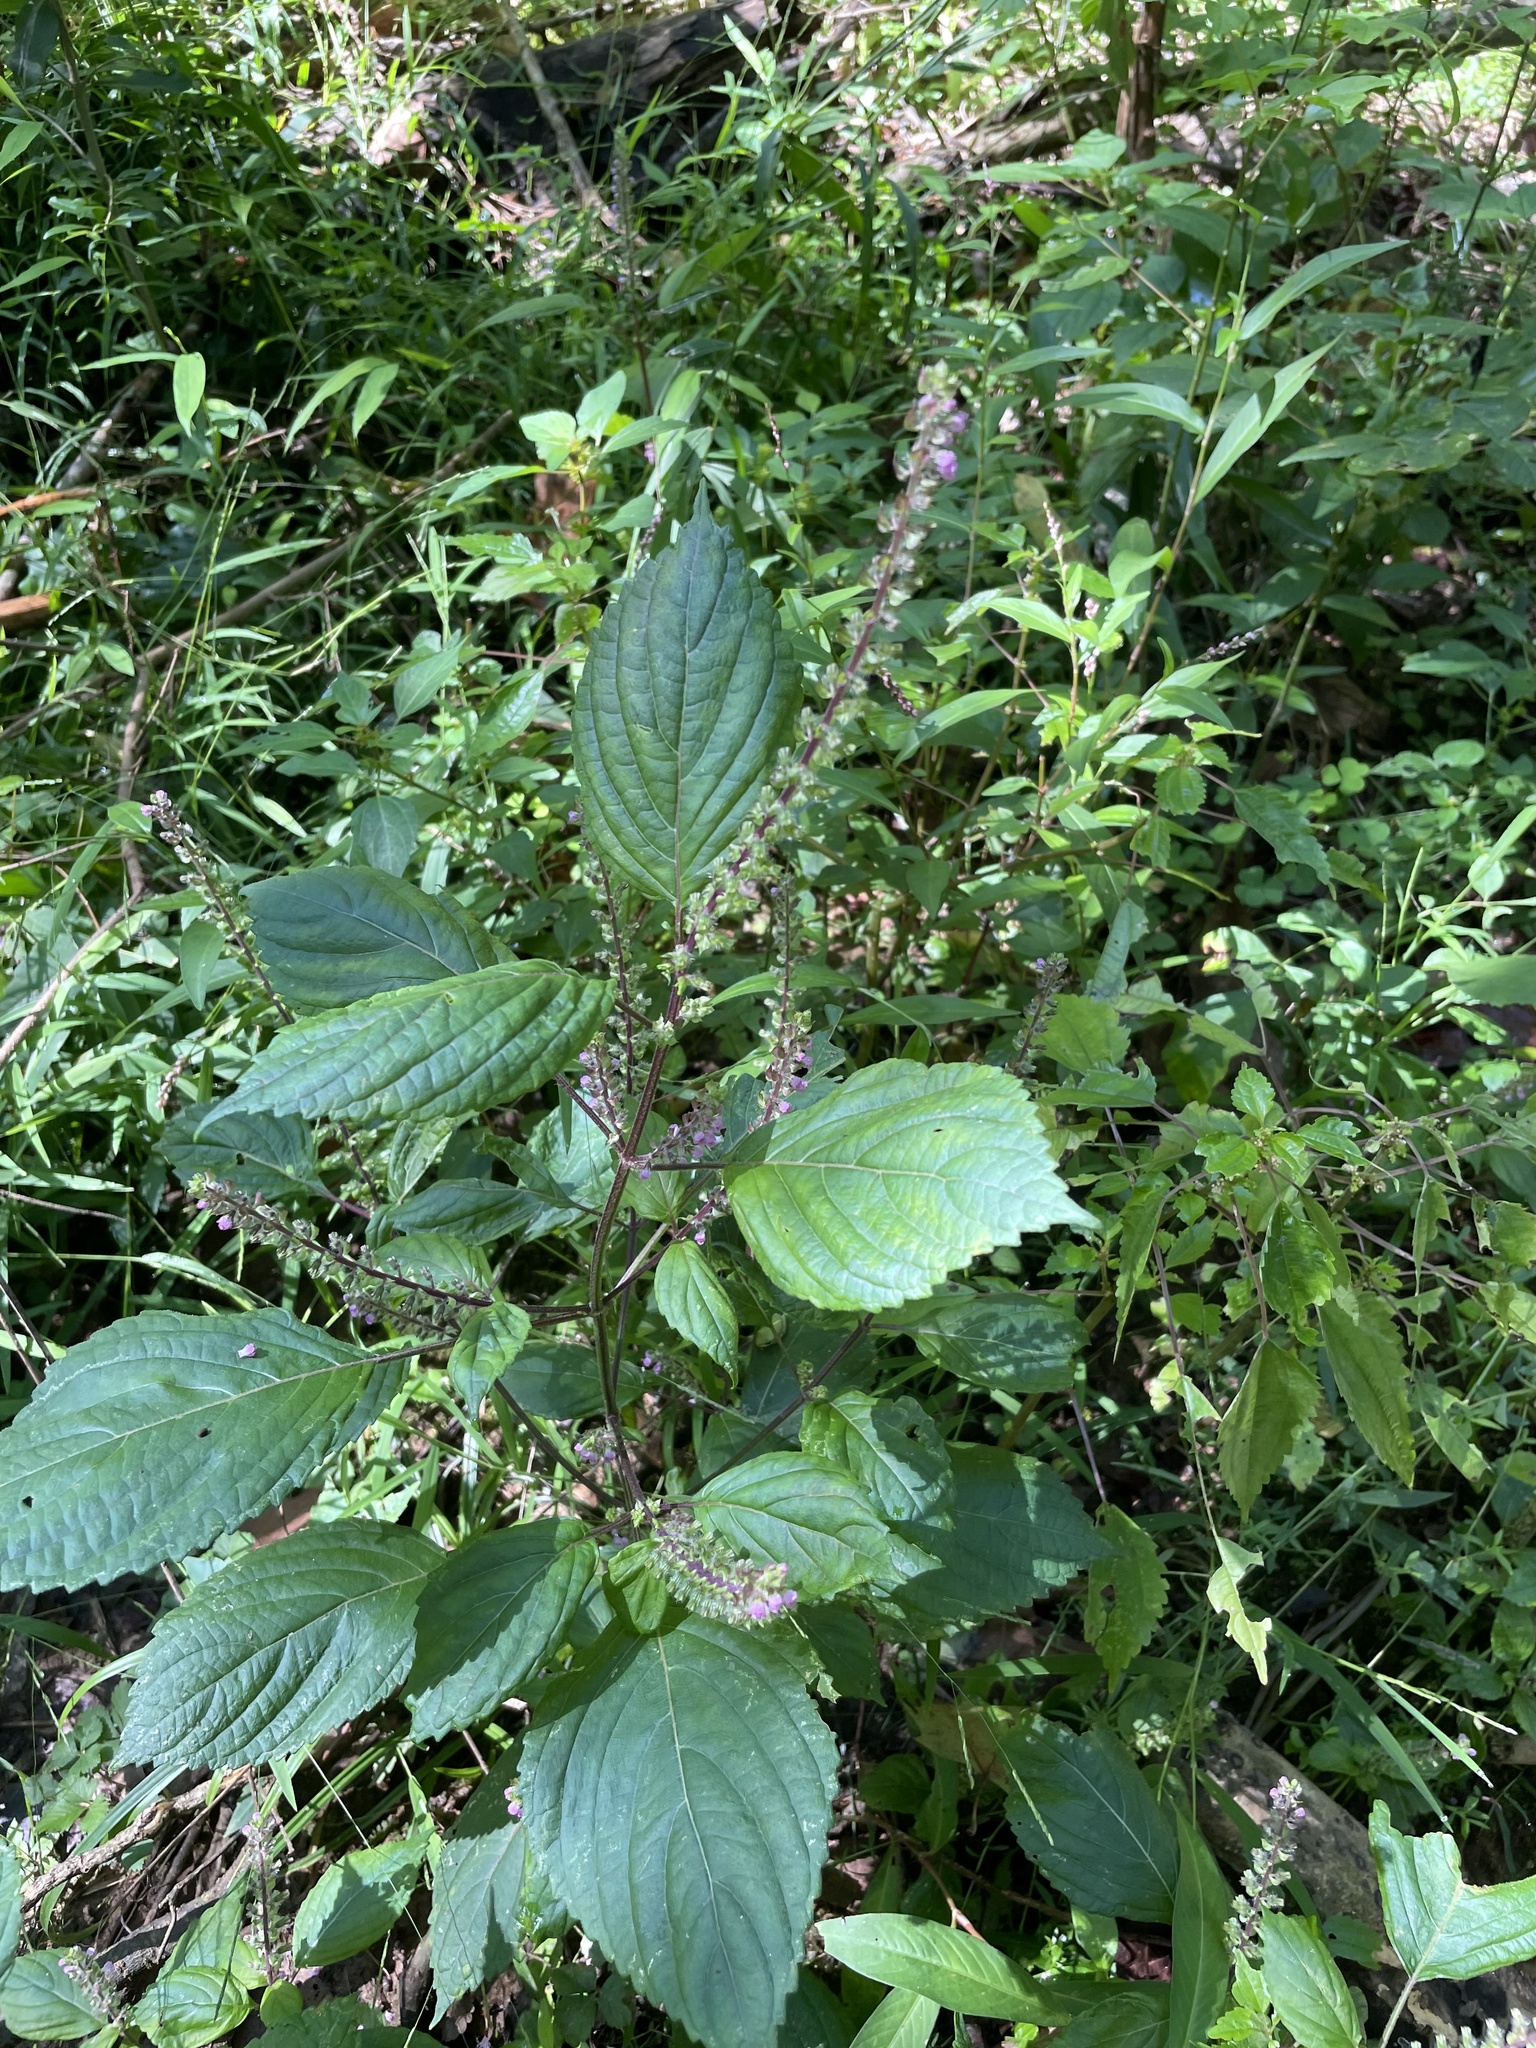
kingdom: Plantae
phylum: Tracheophyta
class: Magnoliopsida
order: Lamiales
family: Lamiaceae
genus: Perilla
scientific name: Perilla frutescens
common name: Perilla
